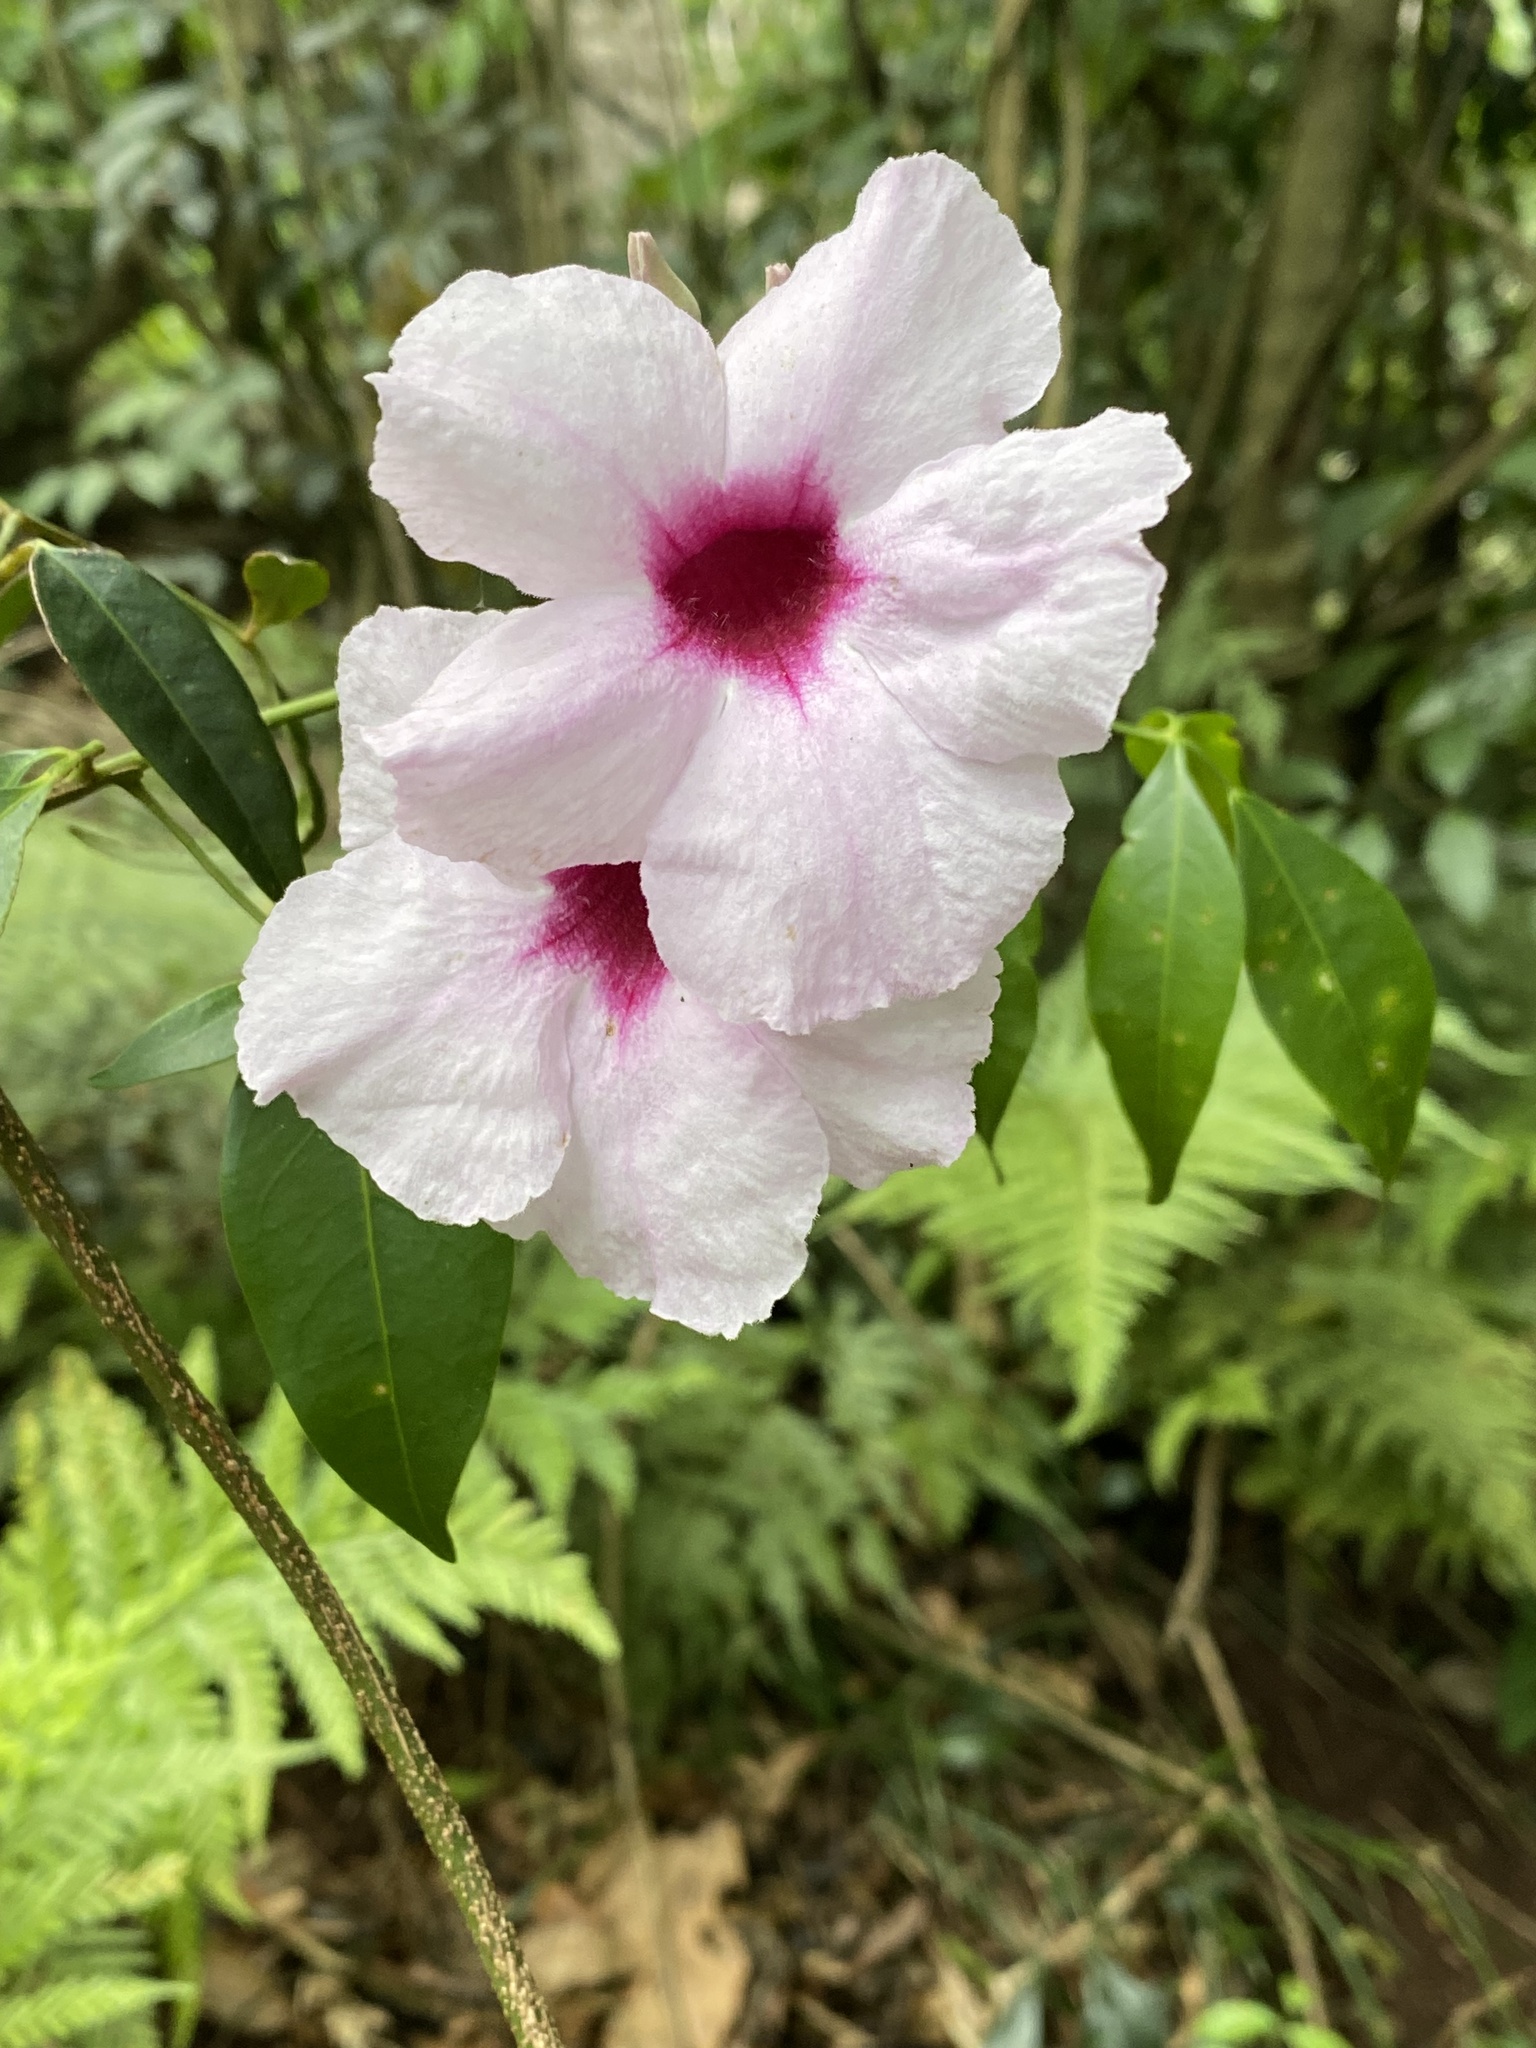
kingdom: Plantae
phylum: Tracheophyta
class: Magnoliopsida
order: Lamiales
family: Bignoniaceae
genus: Pandorea
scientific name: Pandorea jasminoides
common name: Bowerplant
